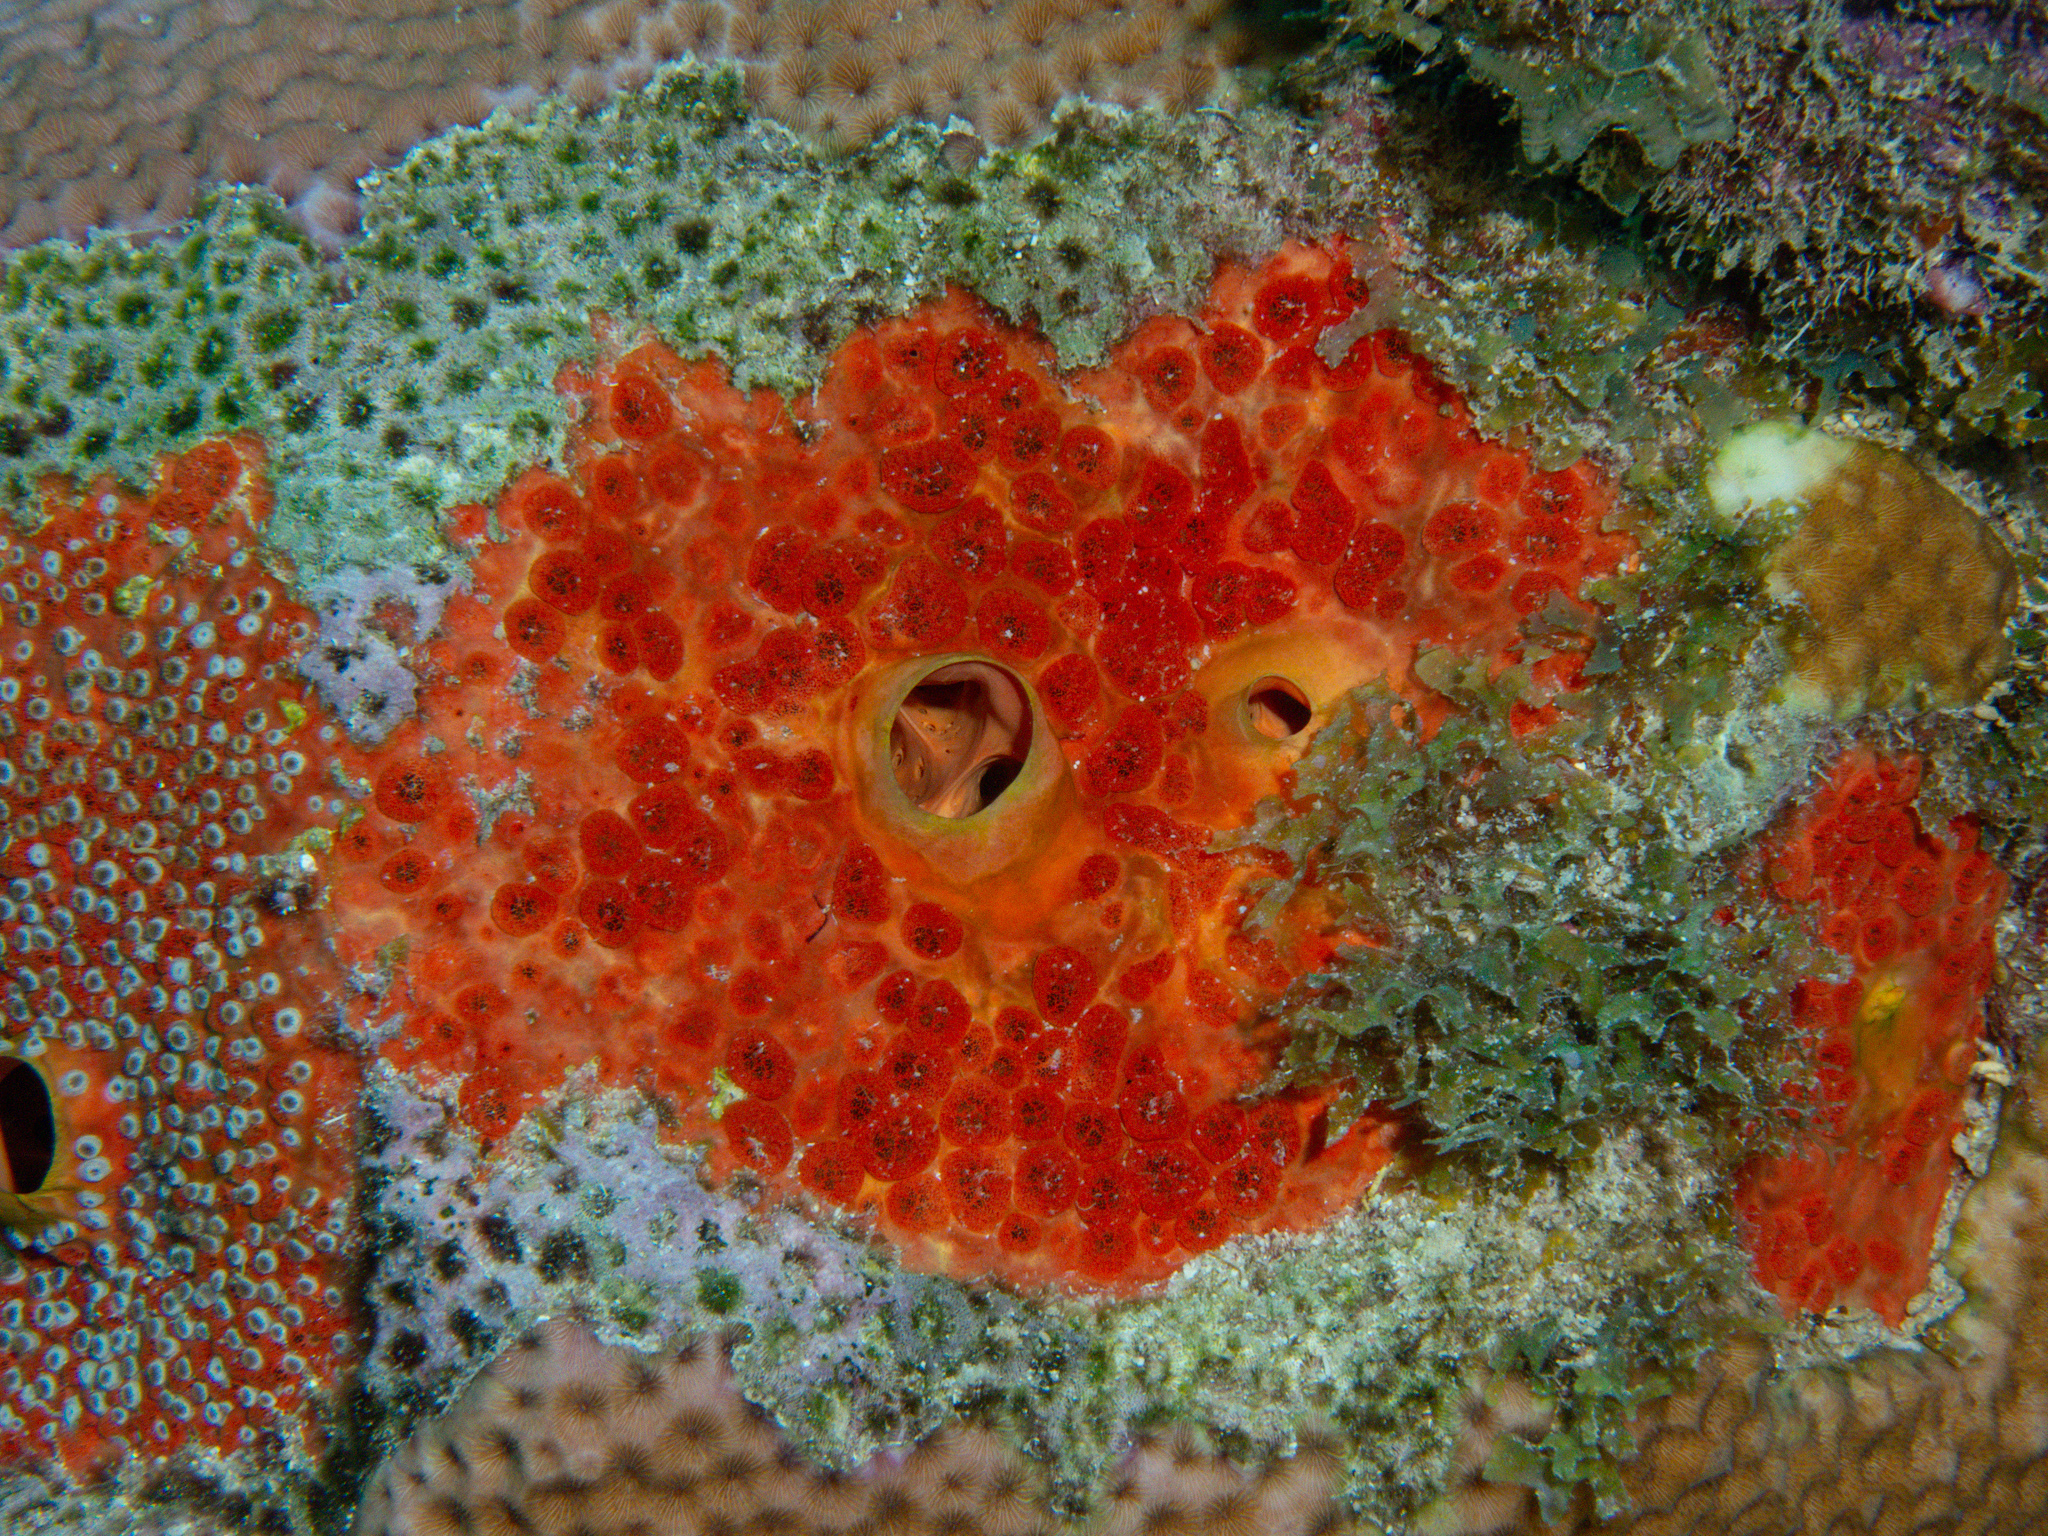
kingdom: Animalia
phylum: Porifera
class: Demospongiae
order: Clionaida
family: Clionaidae
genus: Cliothosa
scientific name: Cliothosa delitrix
